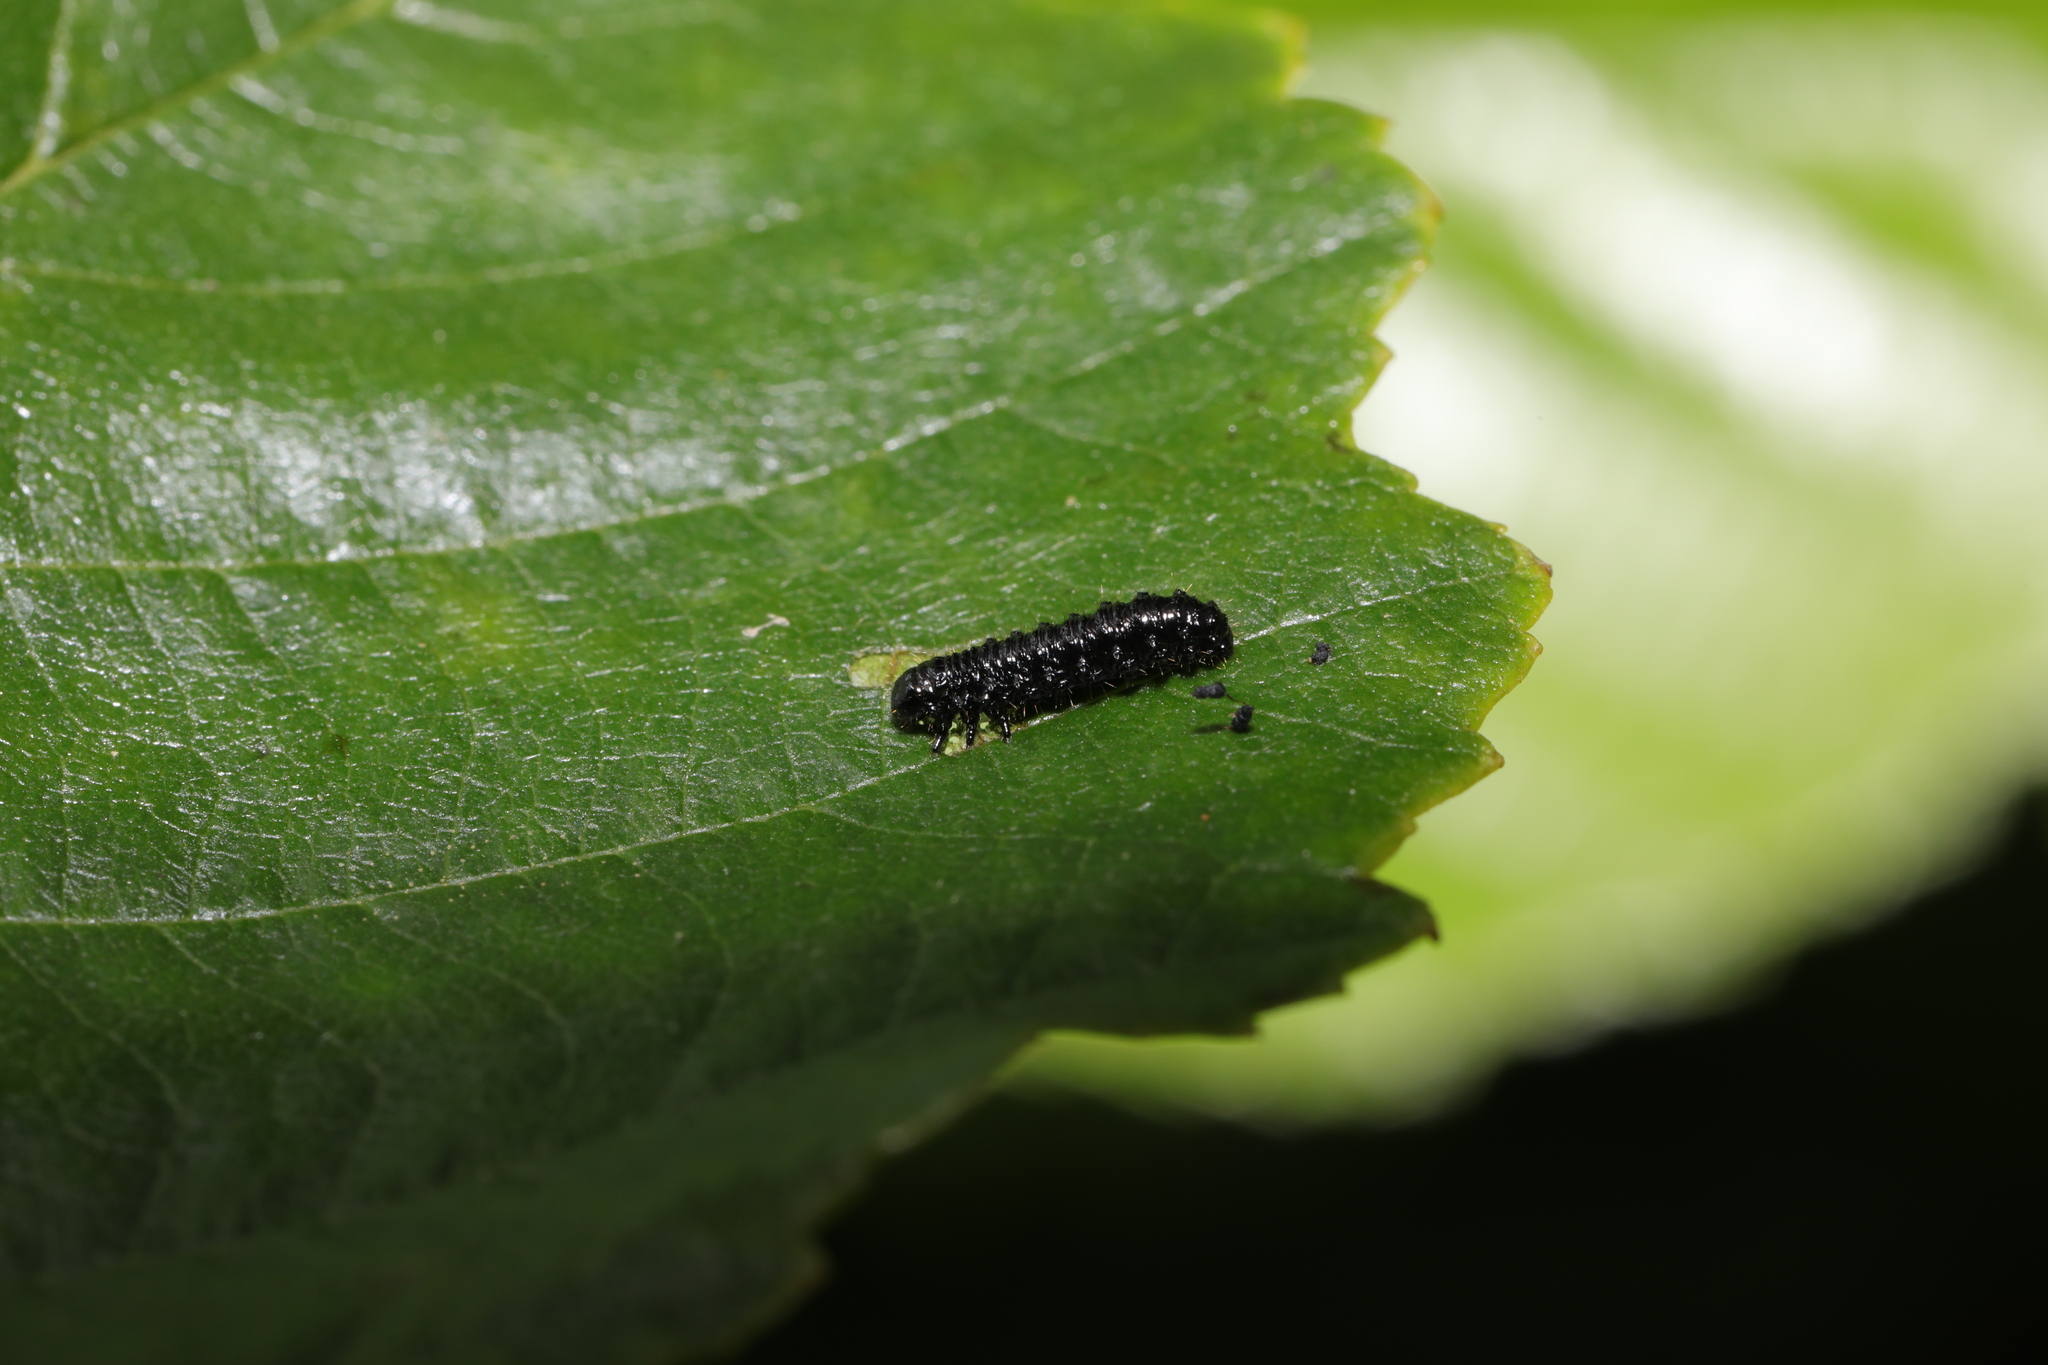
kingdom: Animalia
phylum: Arthropoda
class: Insecta
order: Coleoptera
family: Chrysomelidae
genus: Agelastica
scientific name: Agelastica alni
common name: Alder leaf beetle
